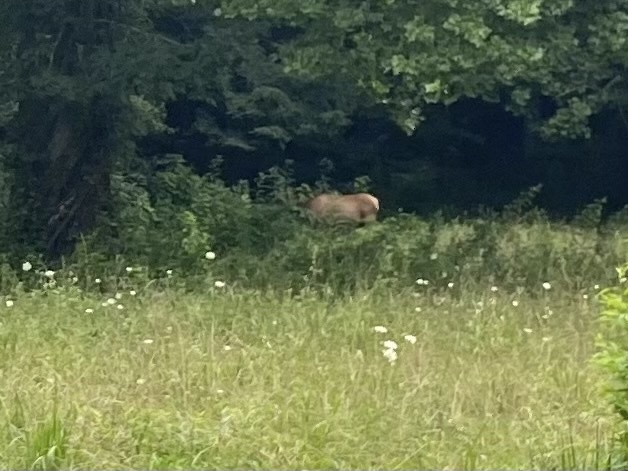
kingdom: Animalia
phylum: Chordata
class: Mammalia
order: Artiodactyla
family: Cervidae
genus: Cervus
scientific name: Cervus elaphus
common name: Red deer
